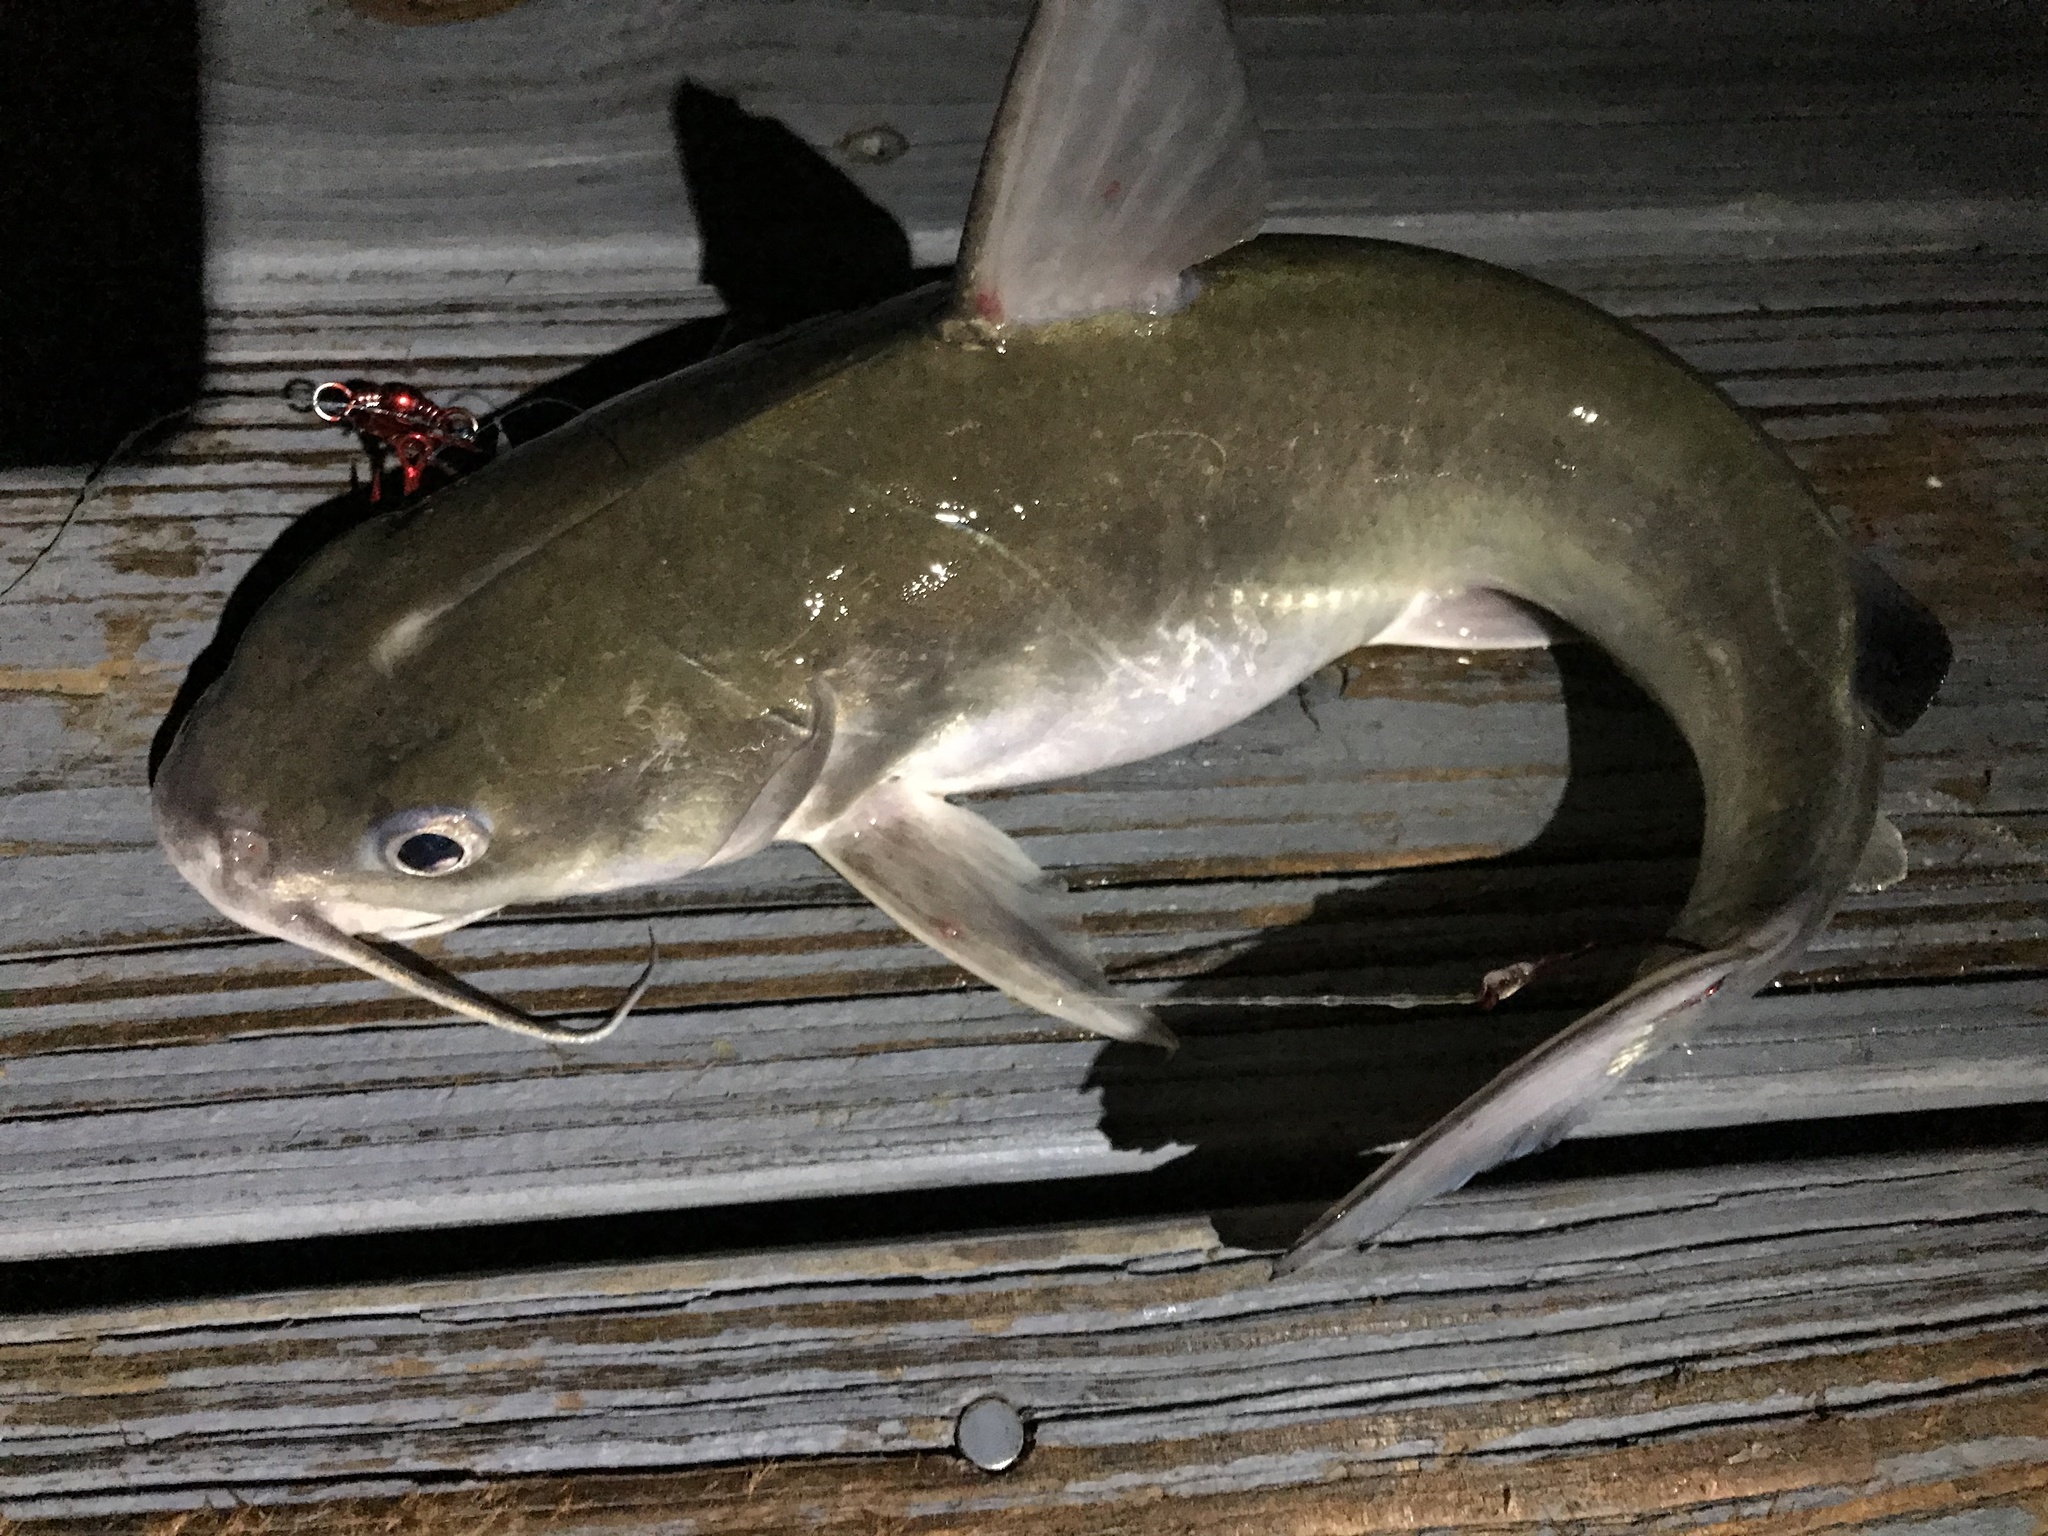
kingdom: Animalia
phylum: Chordata
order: Siluriformes
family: Ariidae
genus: Ariopsis
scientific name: Ariopsis felis
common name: Hardhead catfish
